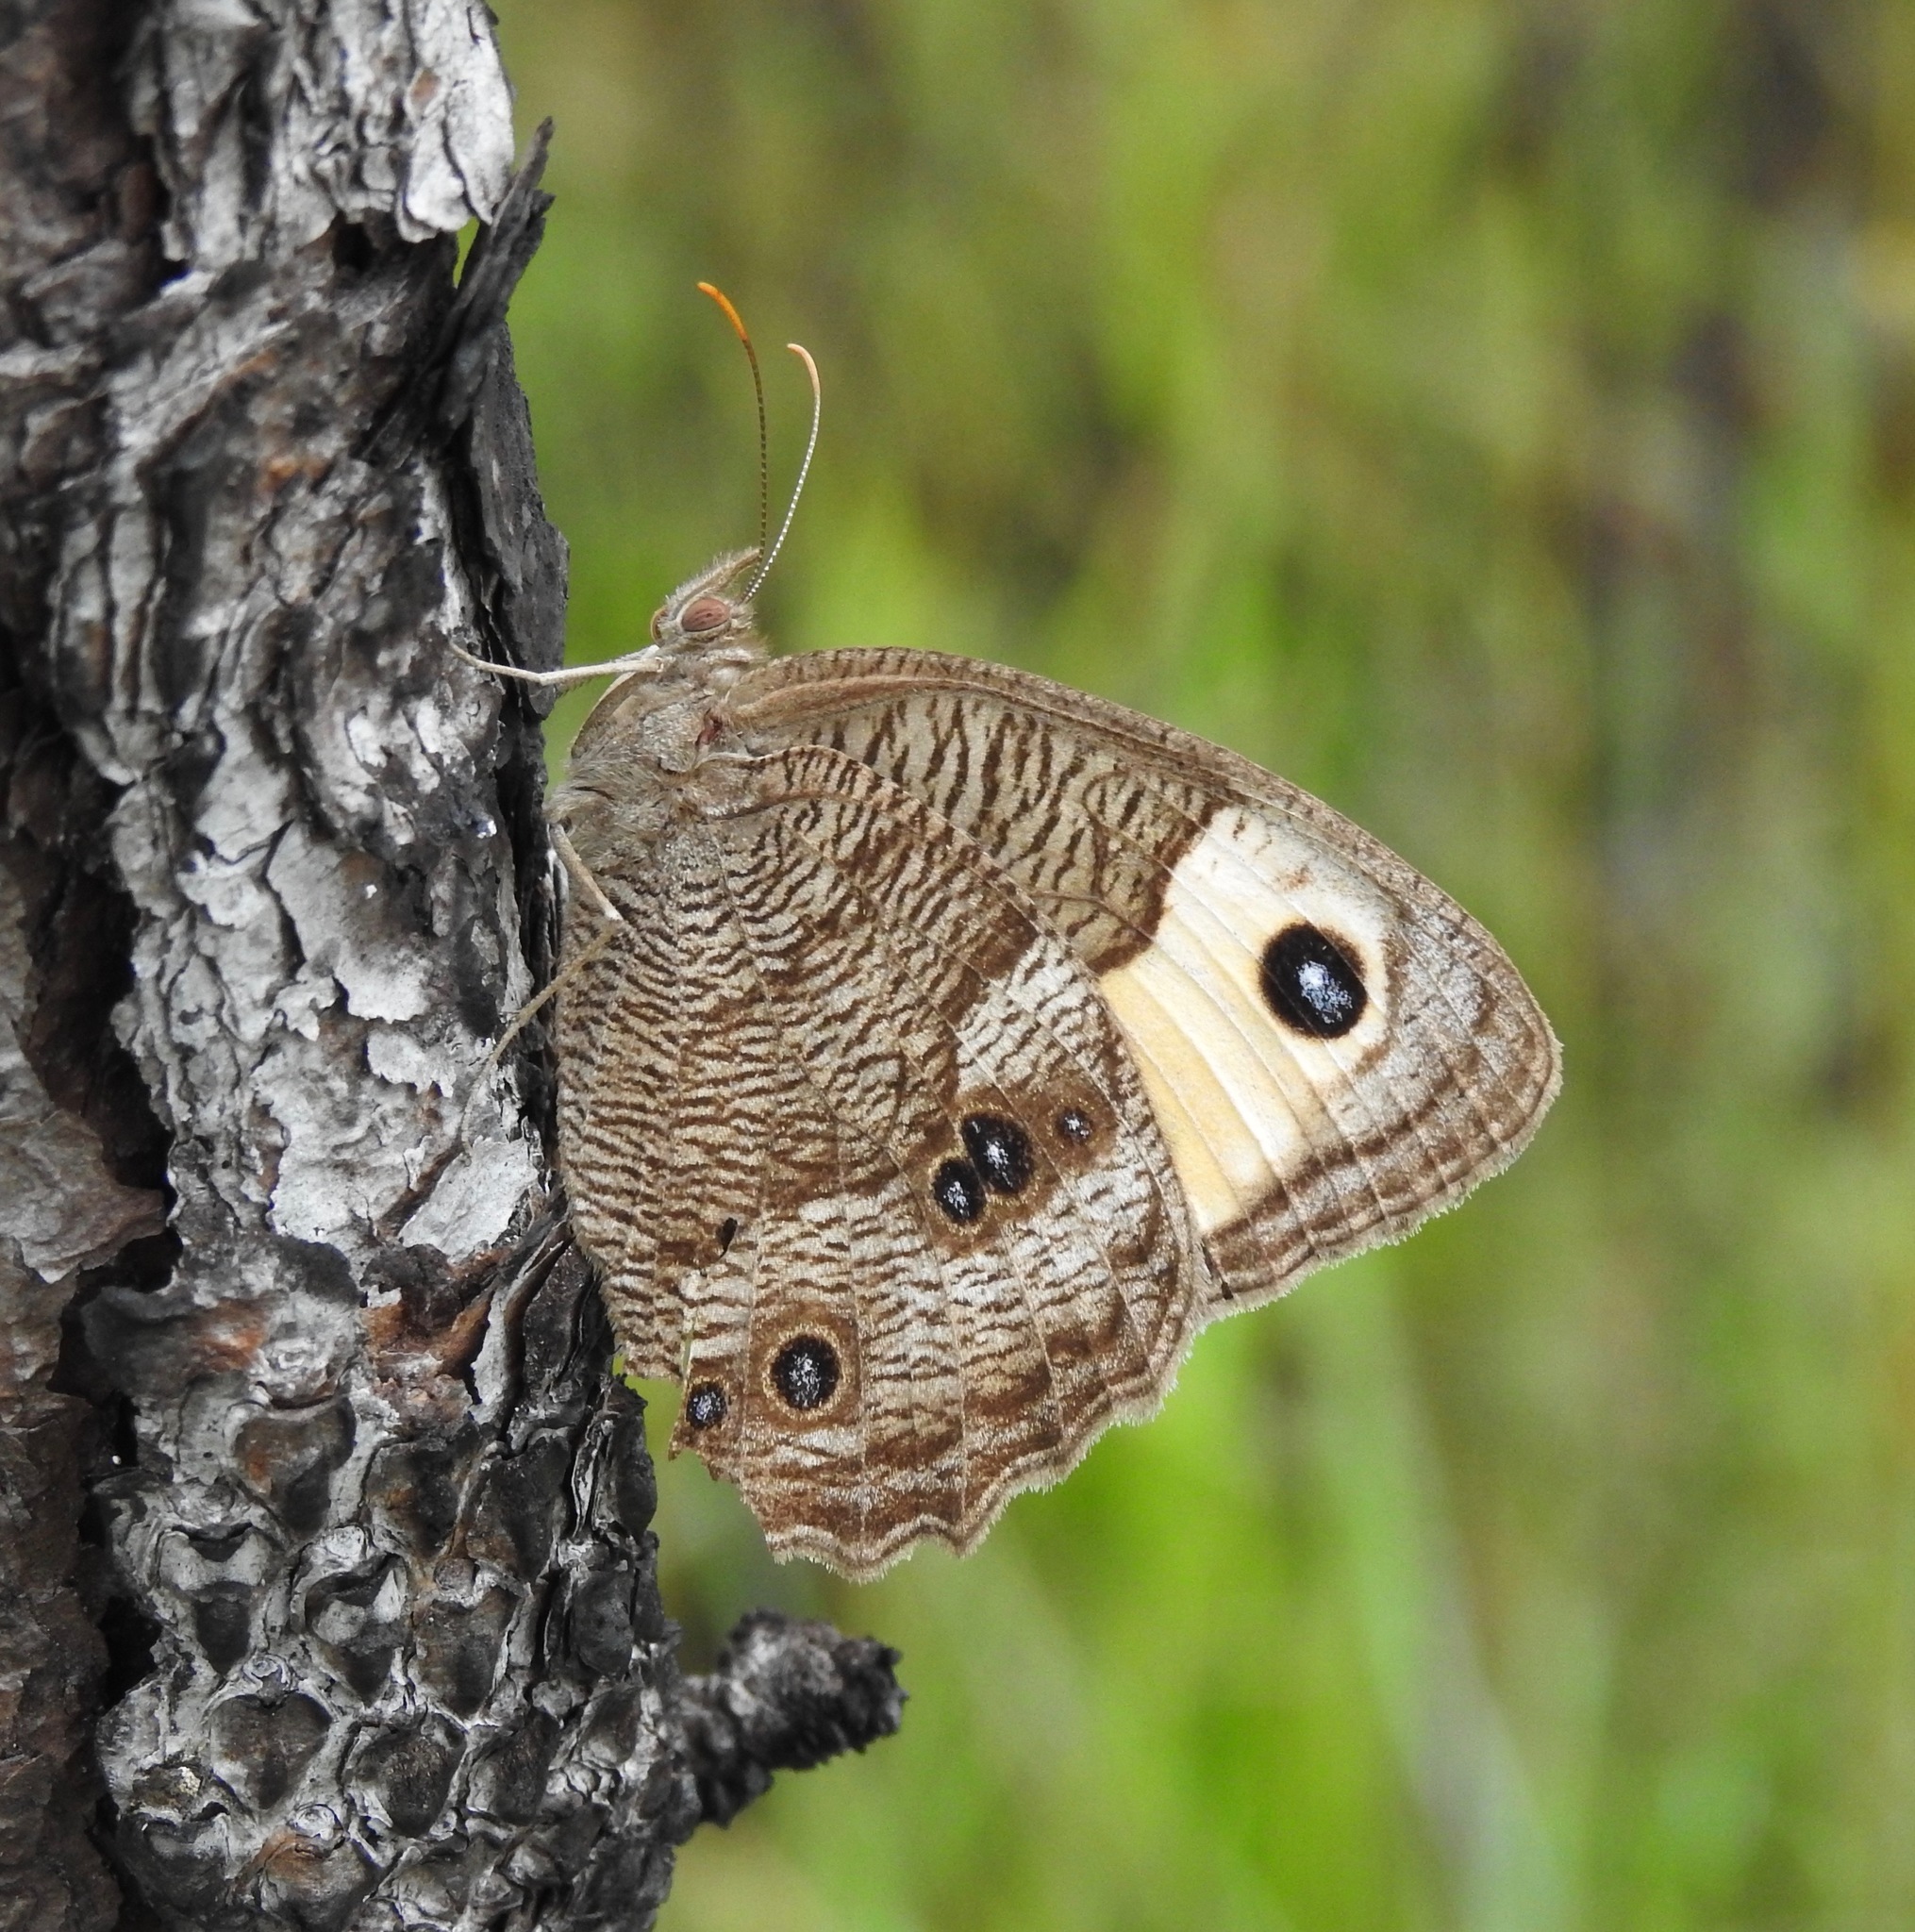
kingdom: Animalia
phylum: Arthropoda
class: Insecta
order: Lepidoptera
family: Nymphalidae
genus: Cercyonis
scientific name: Cercyonis pegala
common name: Common wood-nymph
